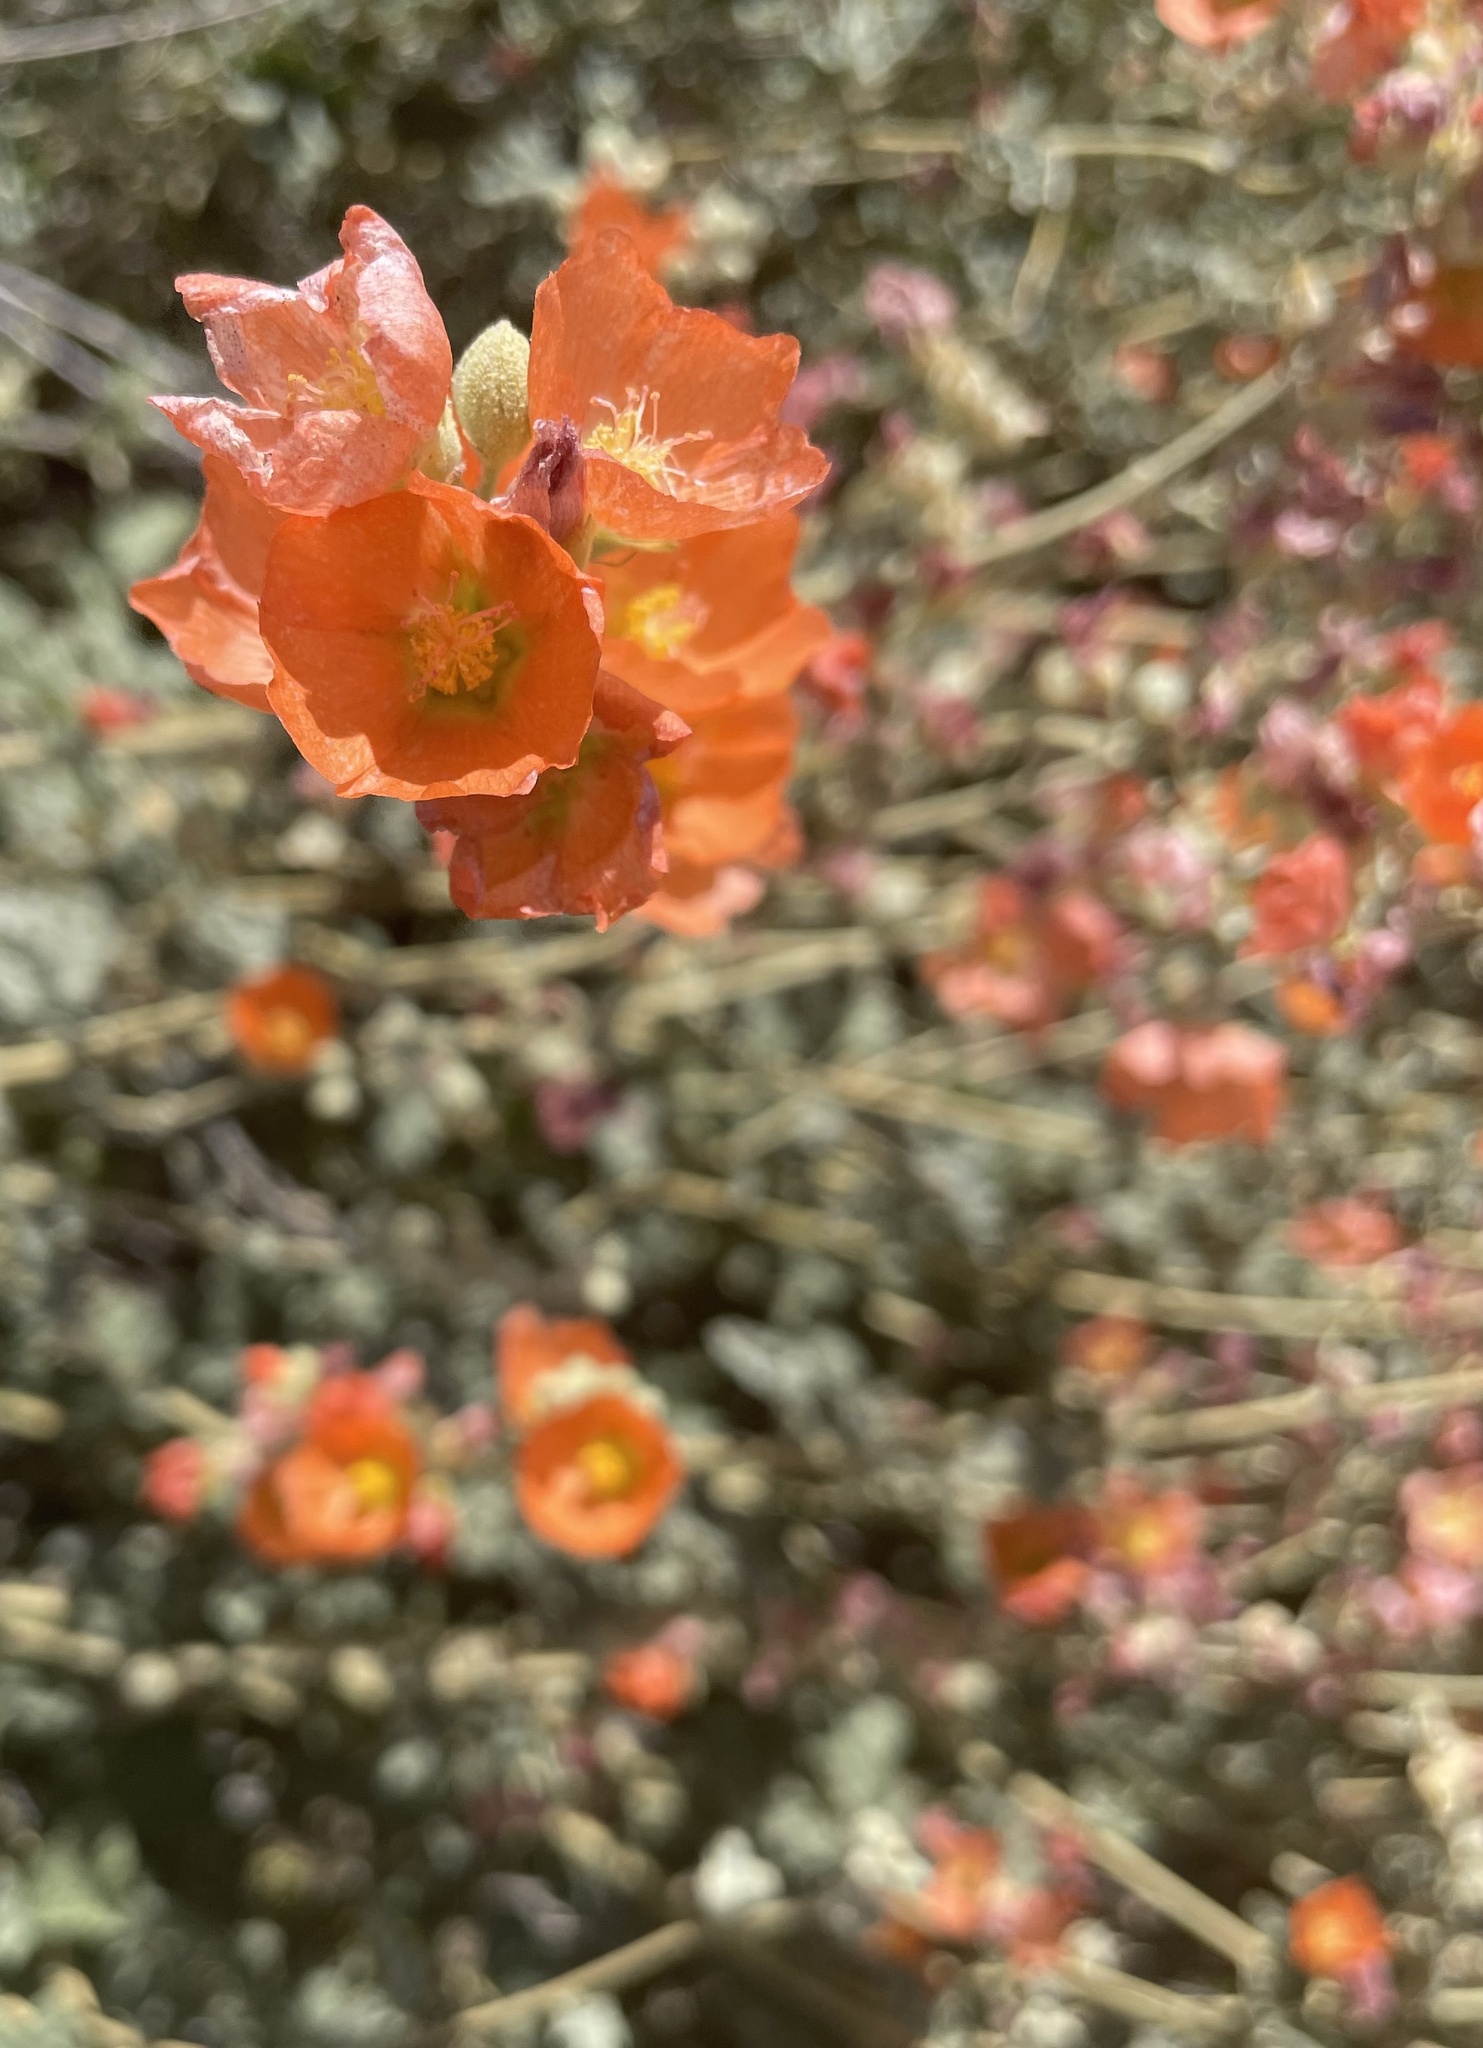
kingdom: Plantae
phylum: Tracheophyta
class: Magnoliopsida
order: Malvales
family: Malvaceae
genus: Sphaeralcea
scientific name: Sphaeralcea ambigua
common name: Apricot globe-mallow
